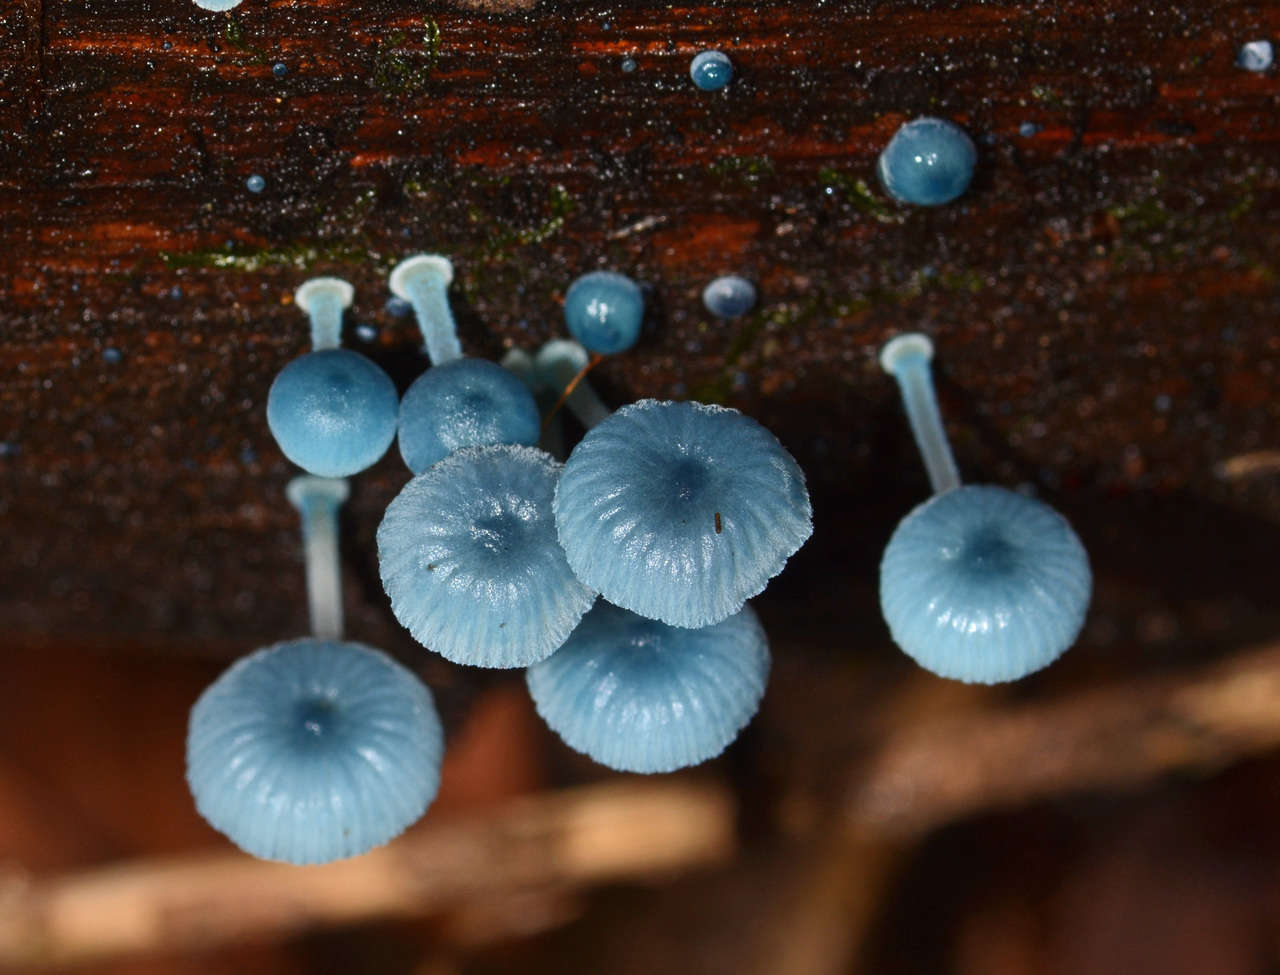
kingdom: Fungi
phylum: Basidiomycota
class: Agaricomycetes
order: Agaricales
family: Mycenaceae
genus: Mycena
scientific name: Mycena interrupta
